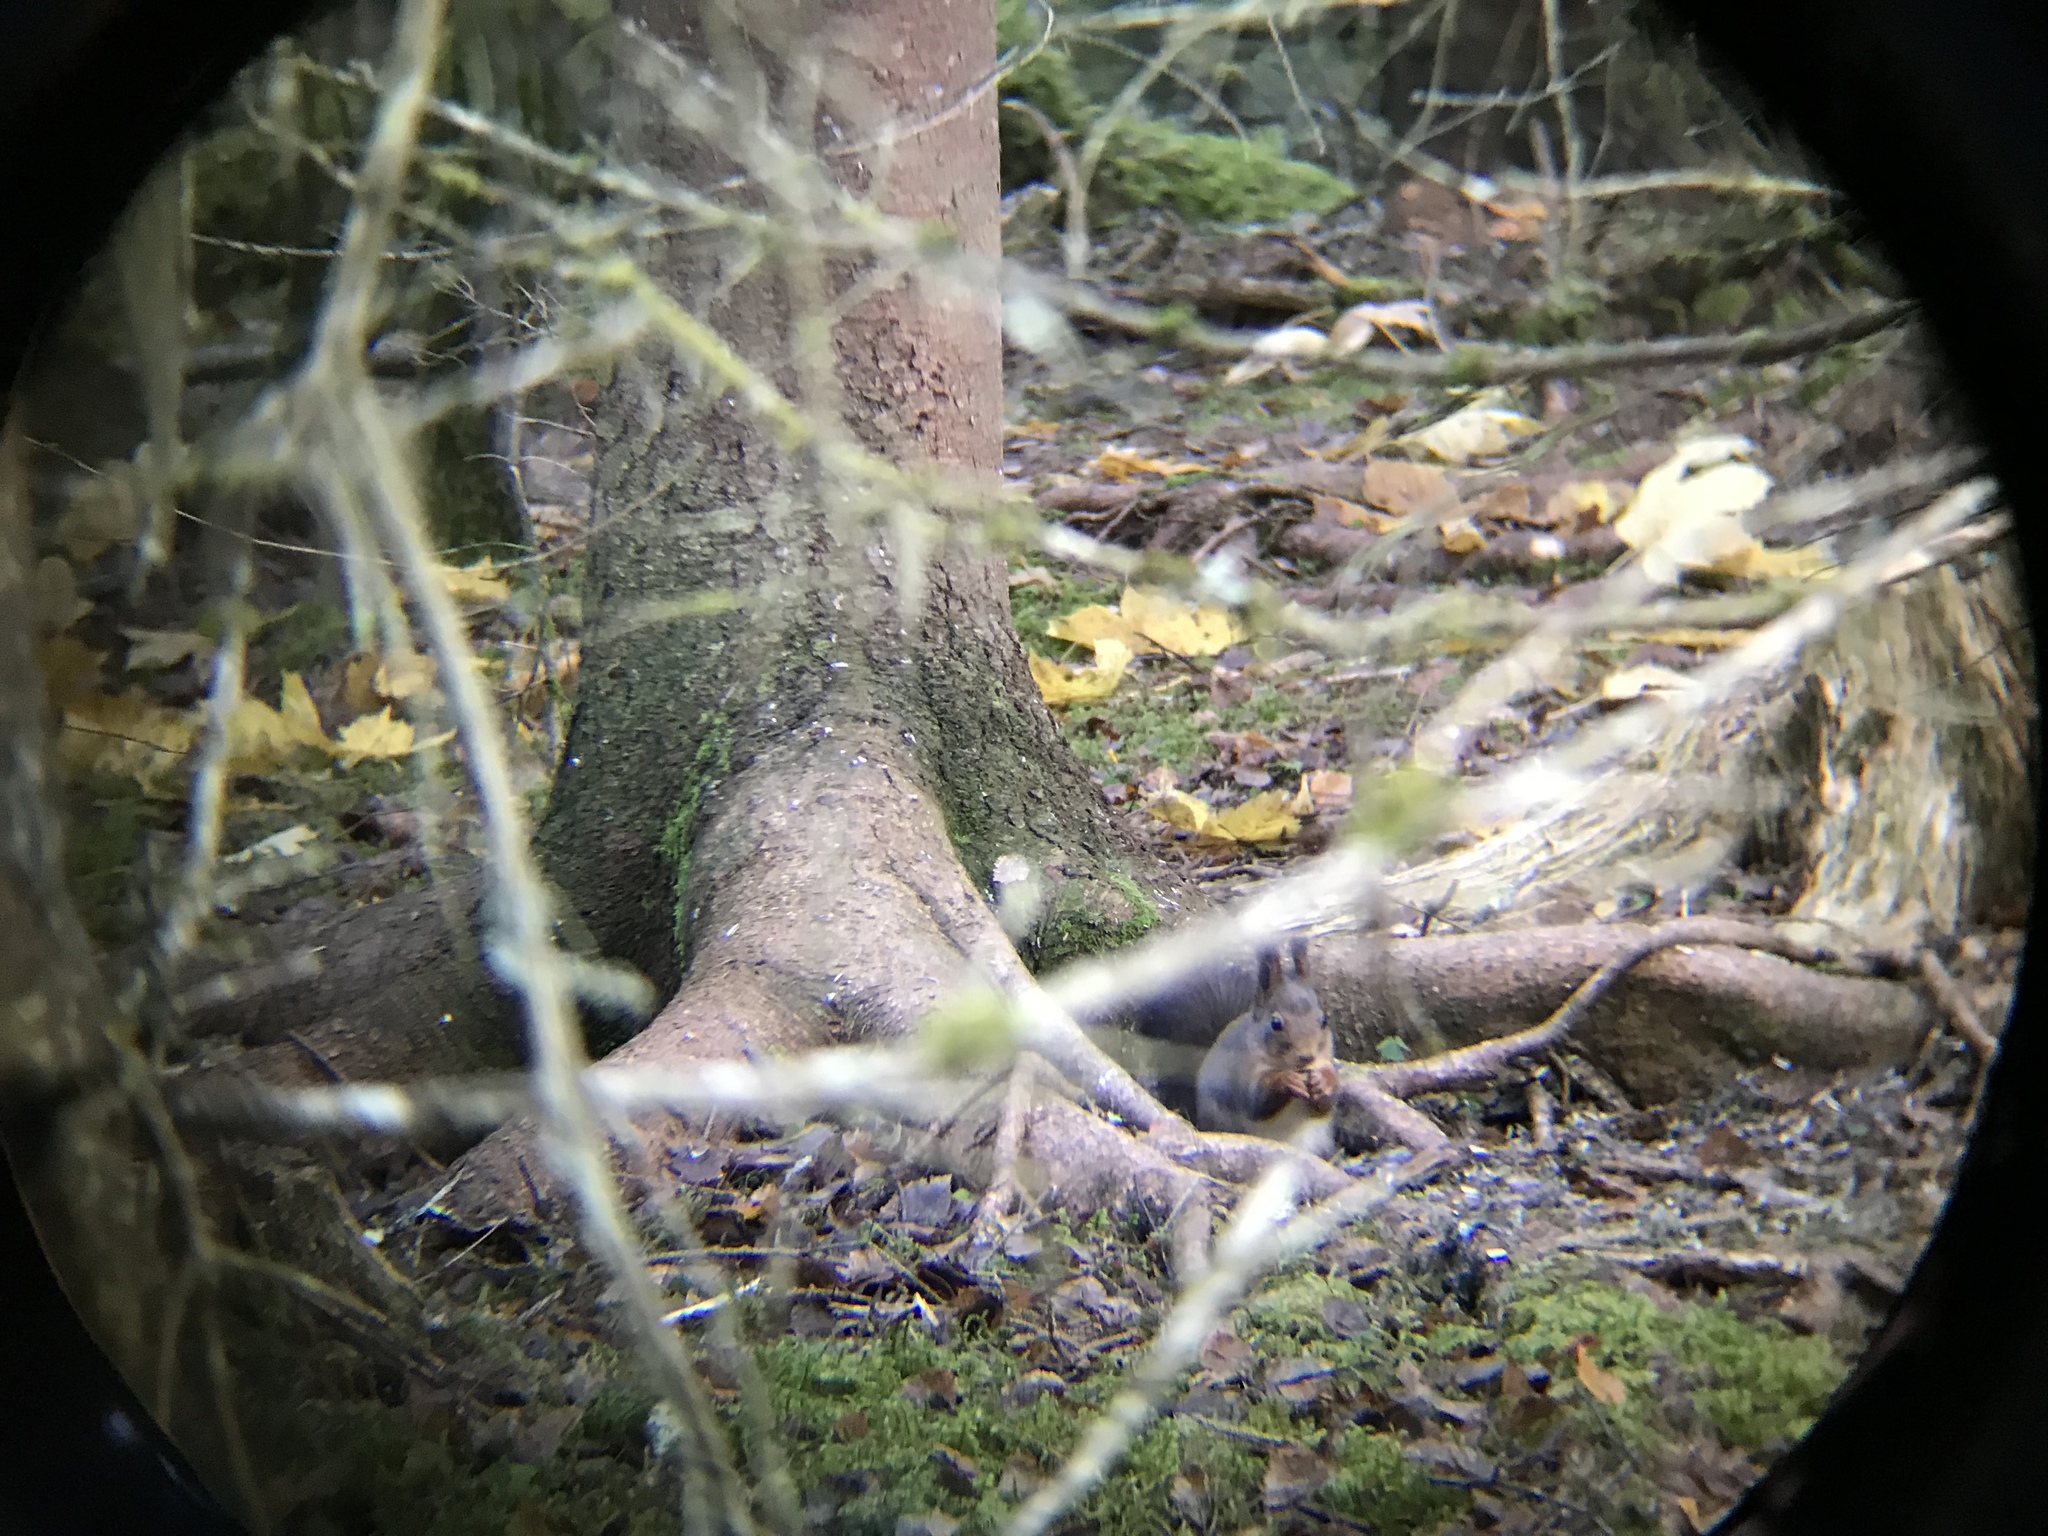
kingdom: Animalia
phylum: Chordata
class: Mammalia
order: Rodentia
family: Sciuridae
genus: Sciurus
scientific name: Sciurus vulgaris
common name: Eurasian red squirrel
